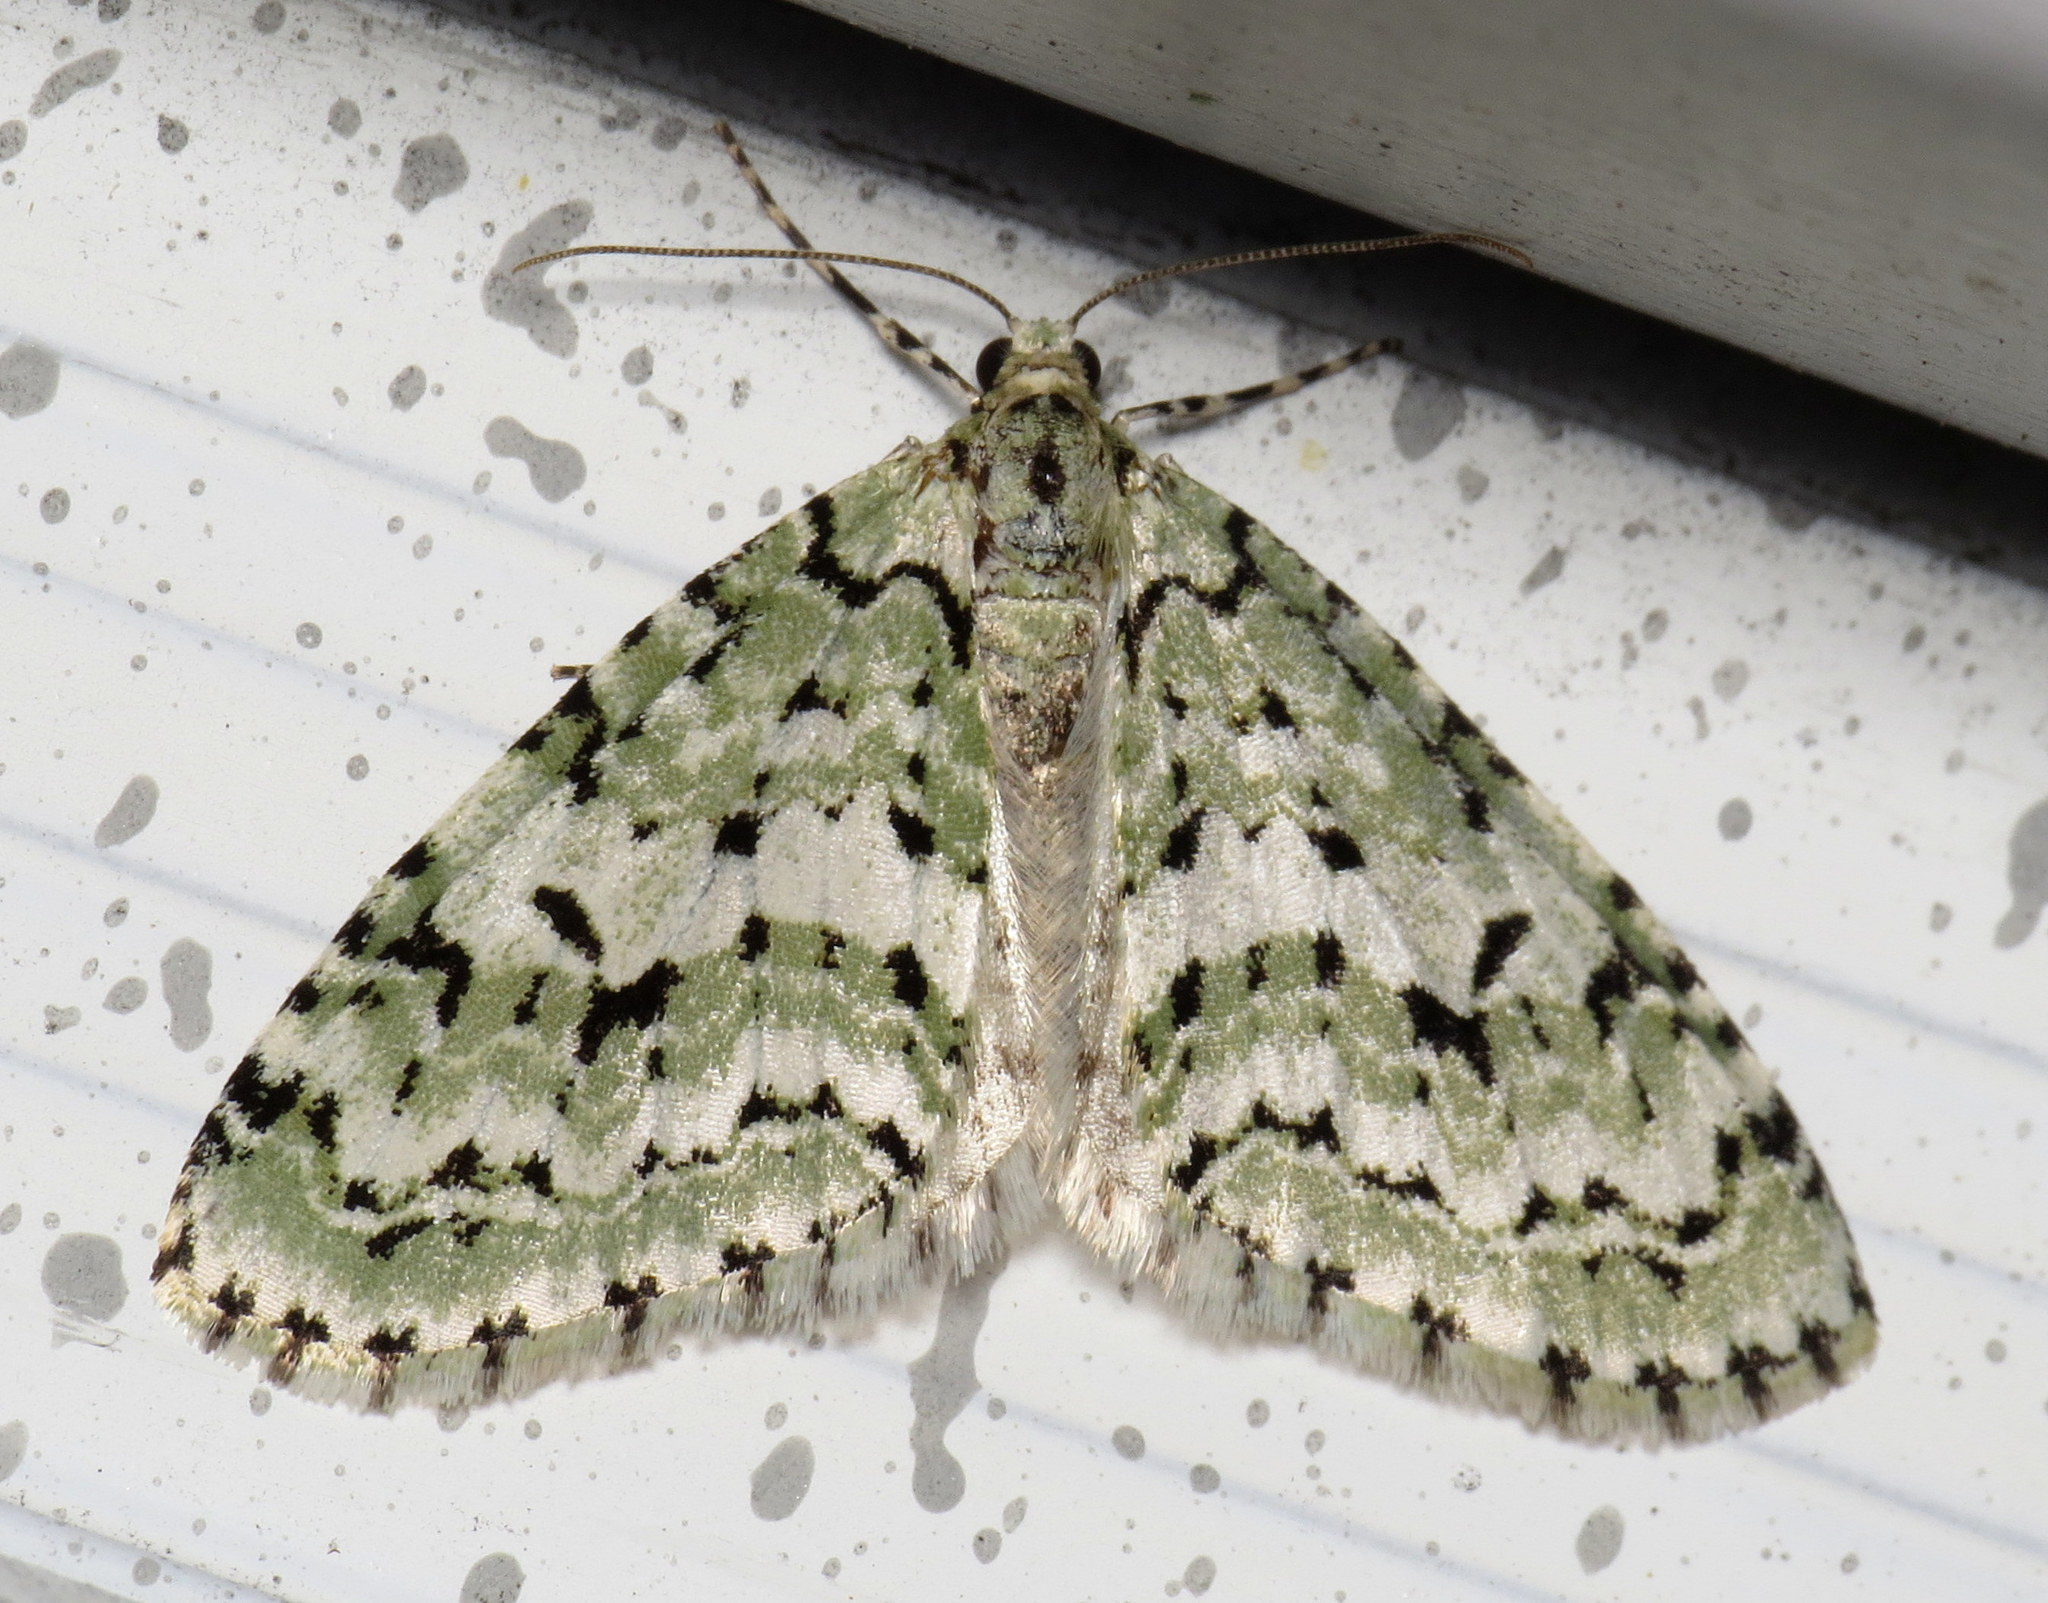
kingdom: Animalia
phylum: Arthropoda
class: Insecta
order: Lepidoptera
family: Geometridae
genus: Cladara
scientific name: Cladara atroliturata
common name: Scribbler
